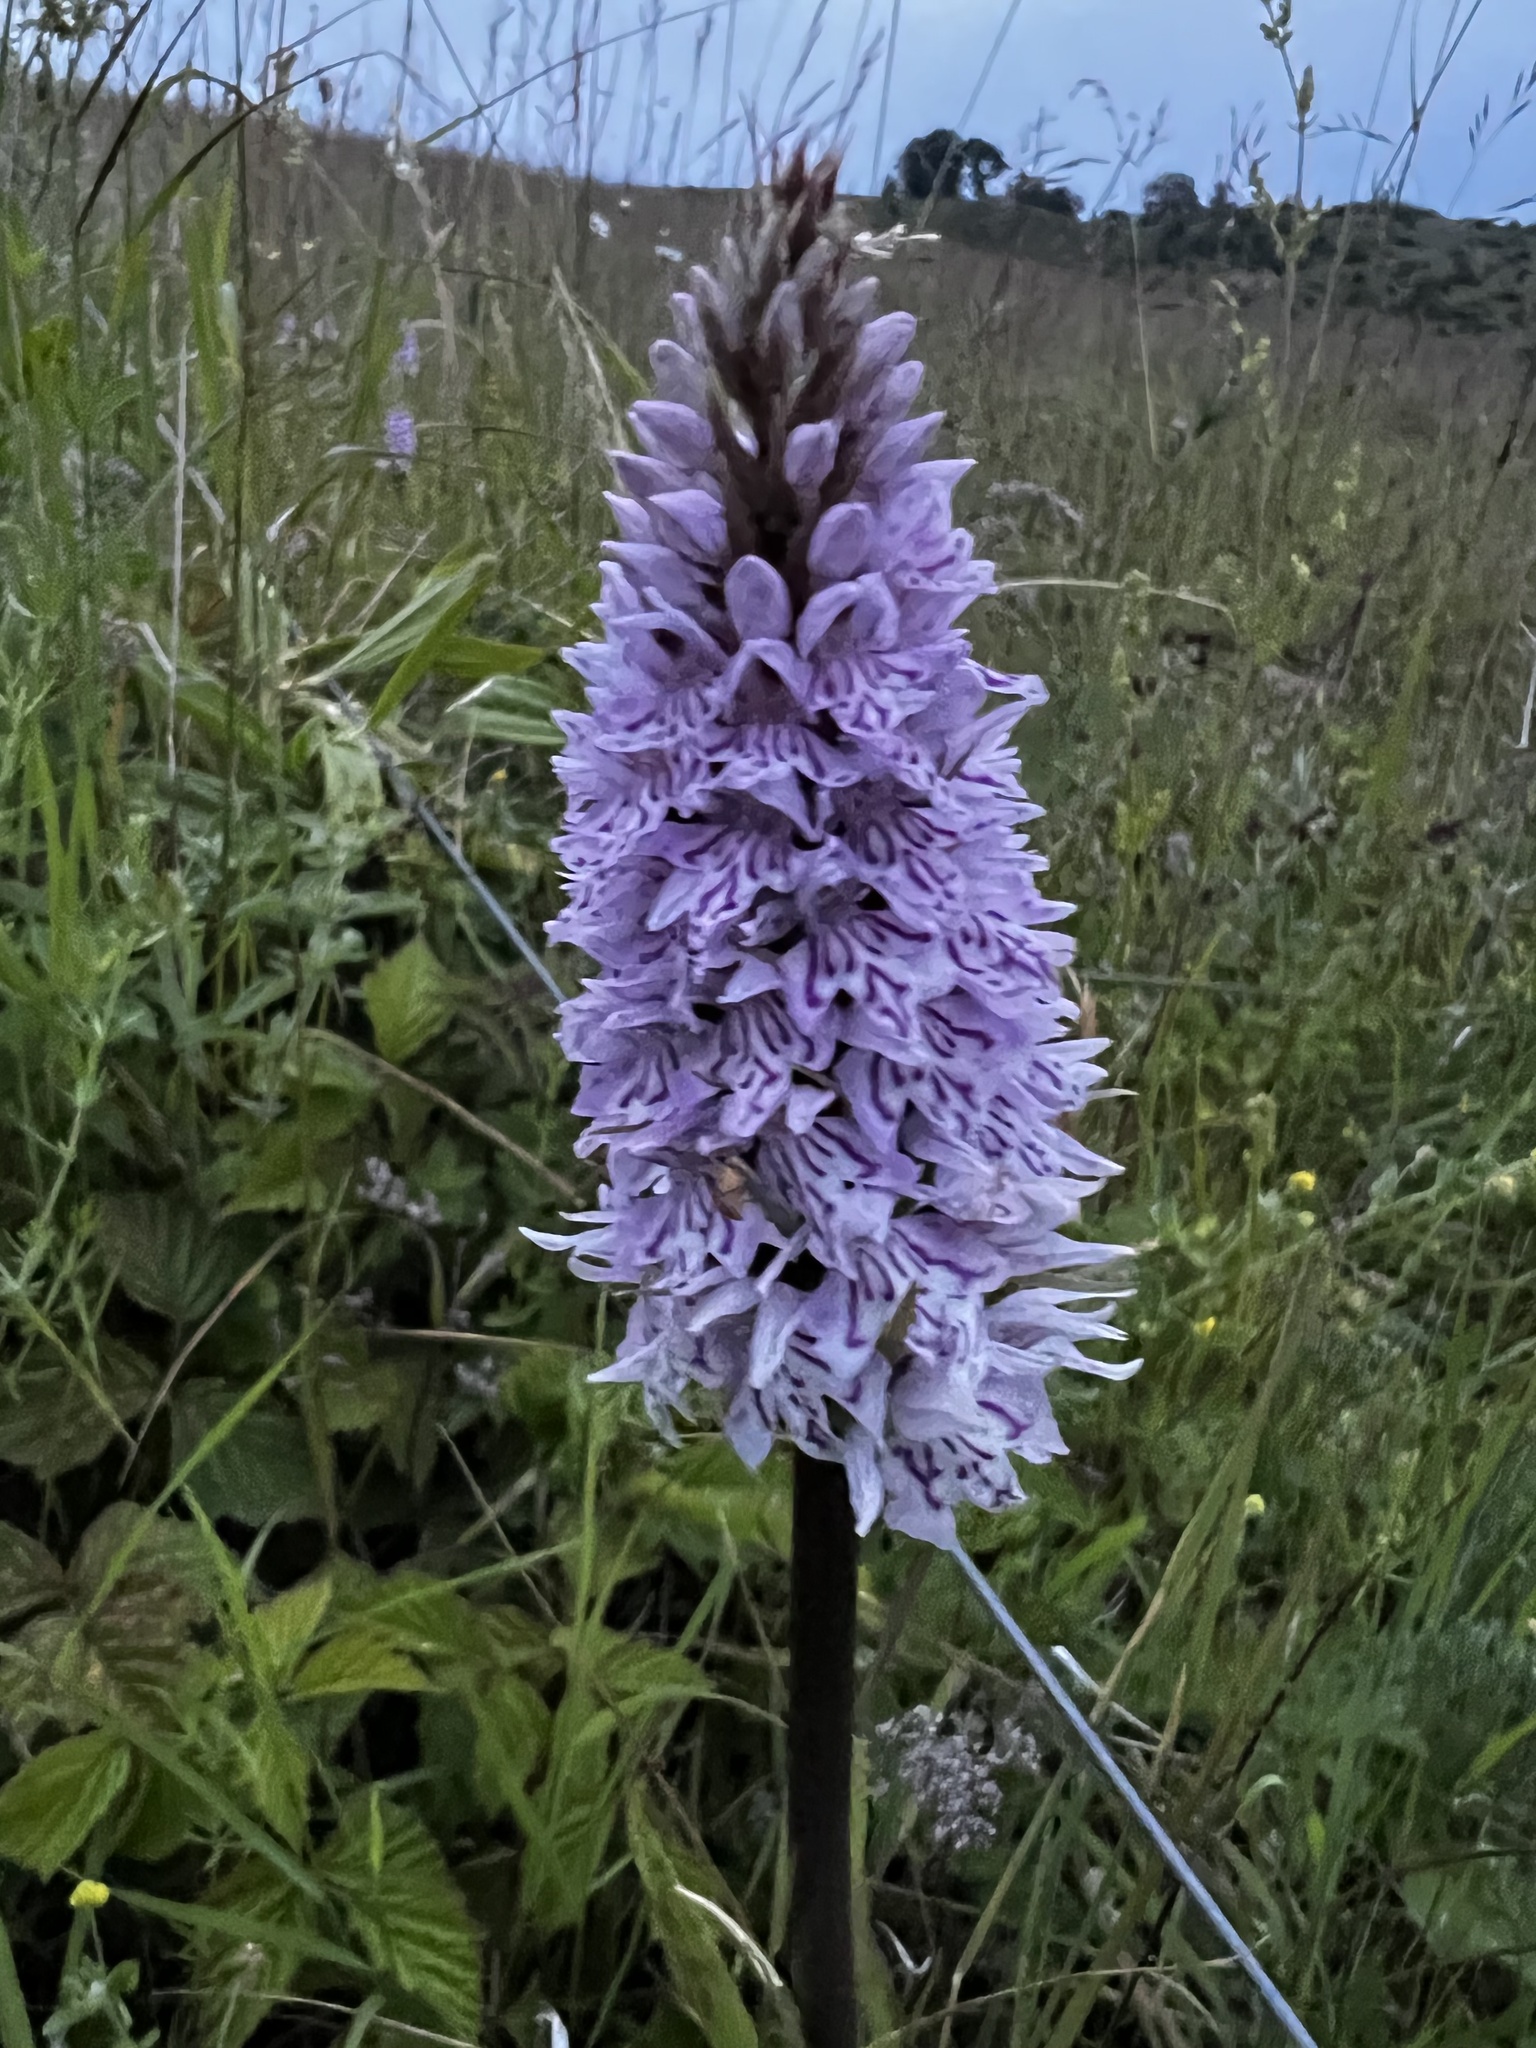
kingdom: Plantae
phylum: Tracheophyta
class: Liliopsida
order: Asparagales
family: Orchidaceae
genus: Dactylorhiza
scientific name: Dactylorhiza maculata
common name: Heath spotted-orchid
